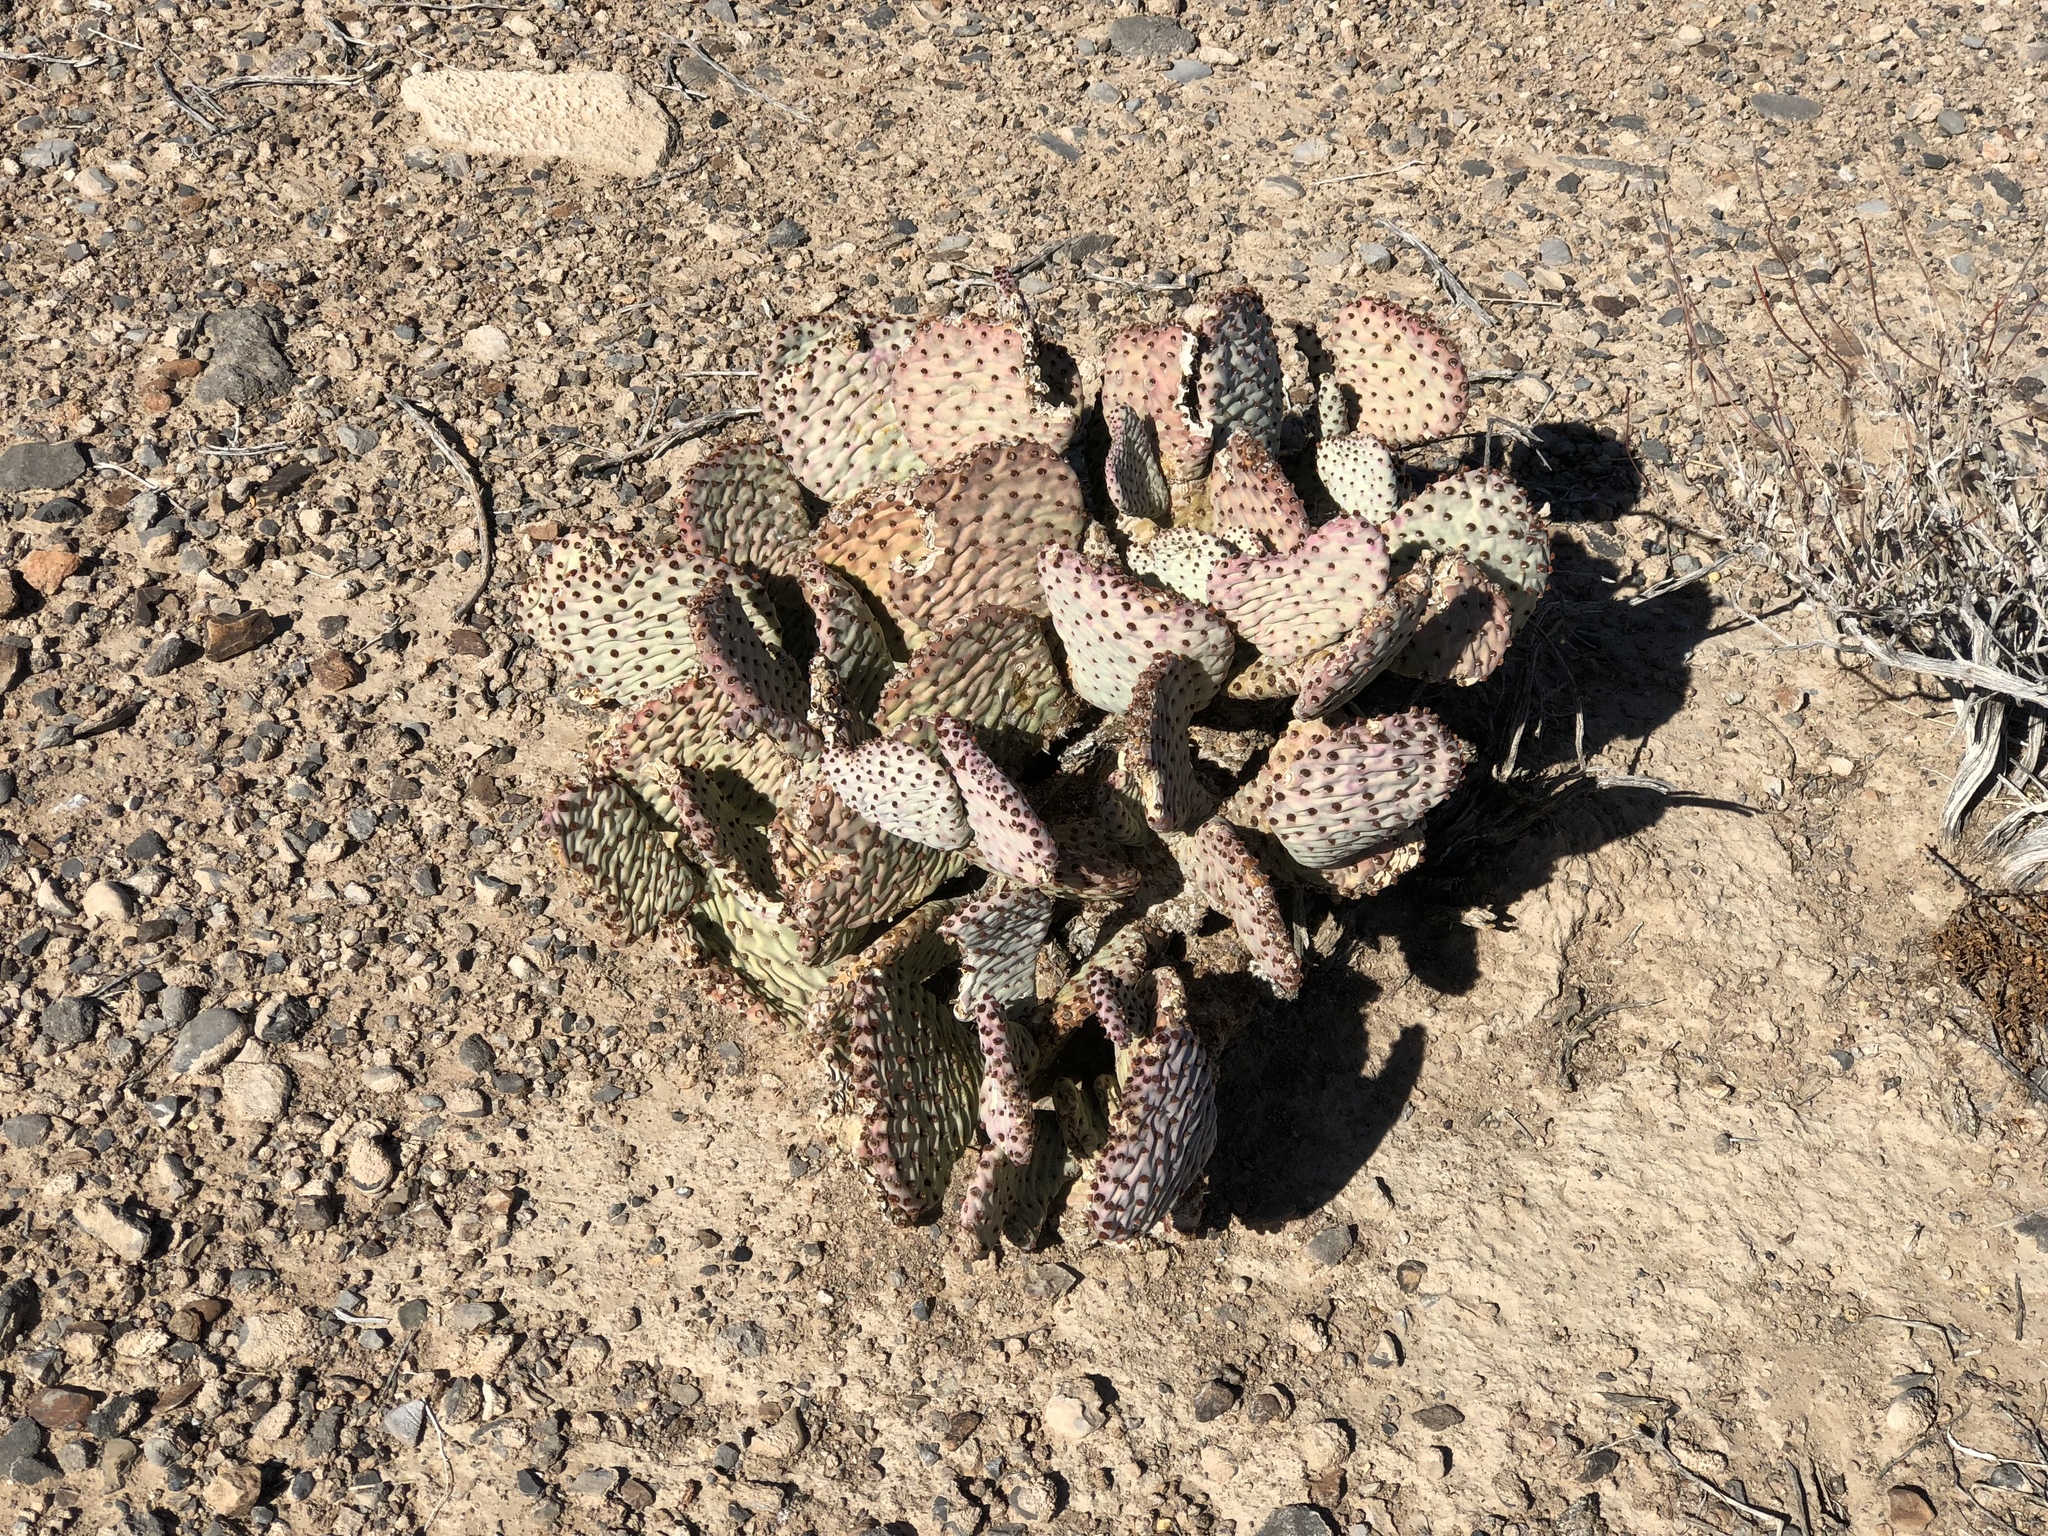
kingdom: Plantae
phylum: Tracheophyta
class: Magnoliopsida
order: Caryophyllales
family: Cactaceae
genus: Opuntia
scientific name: Opuntia basilaris
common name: Beavertail prickly-pear
